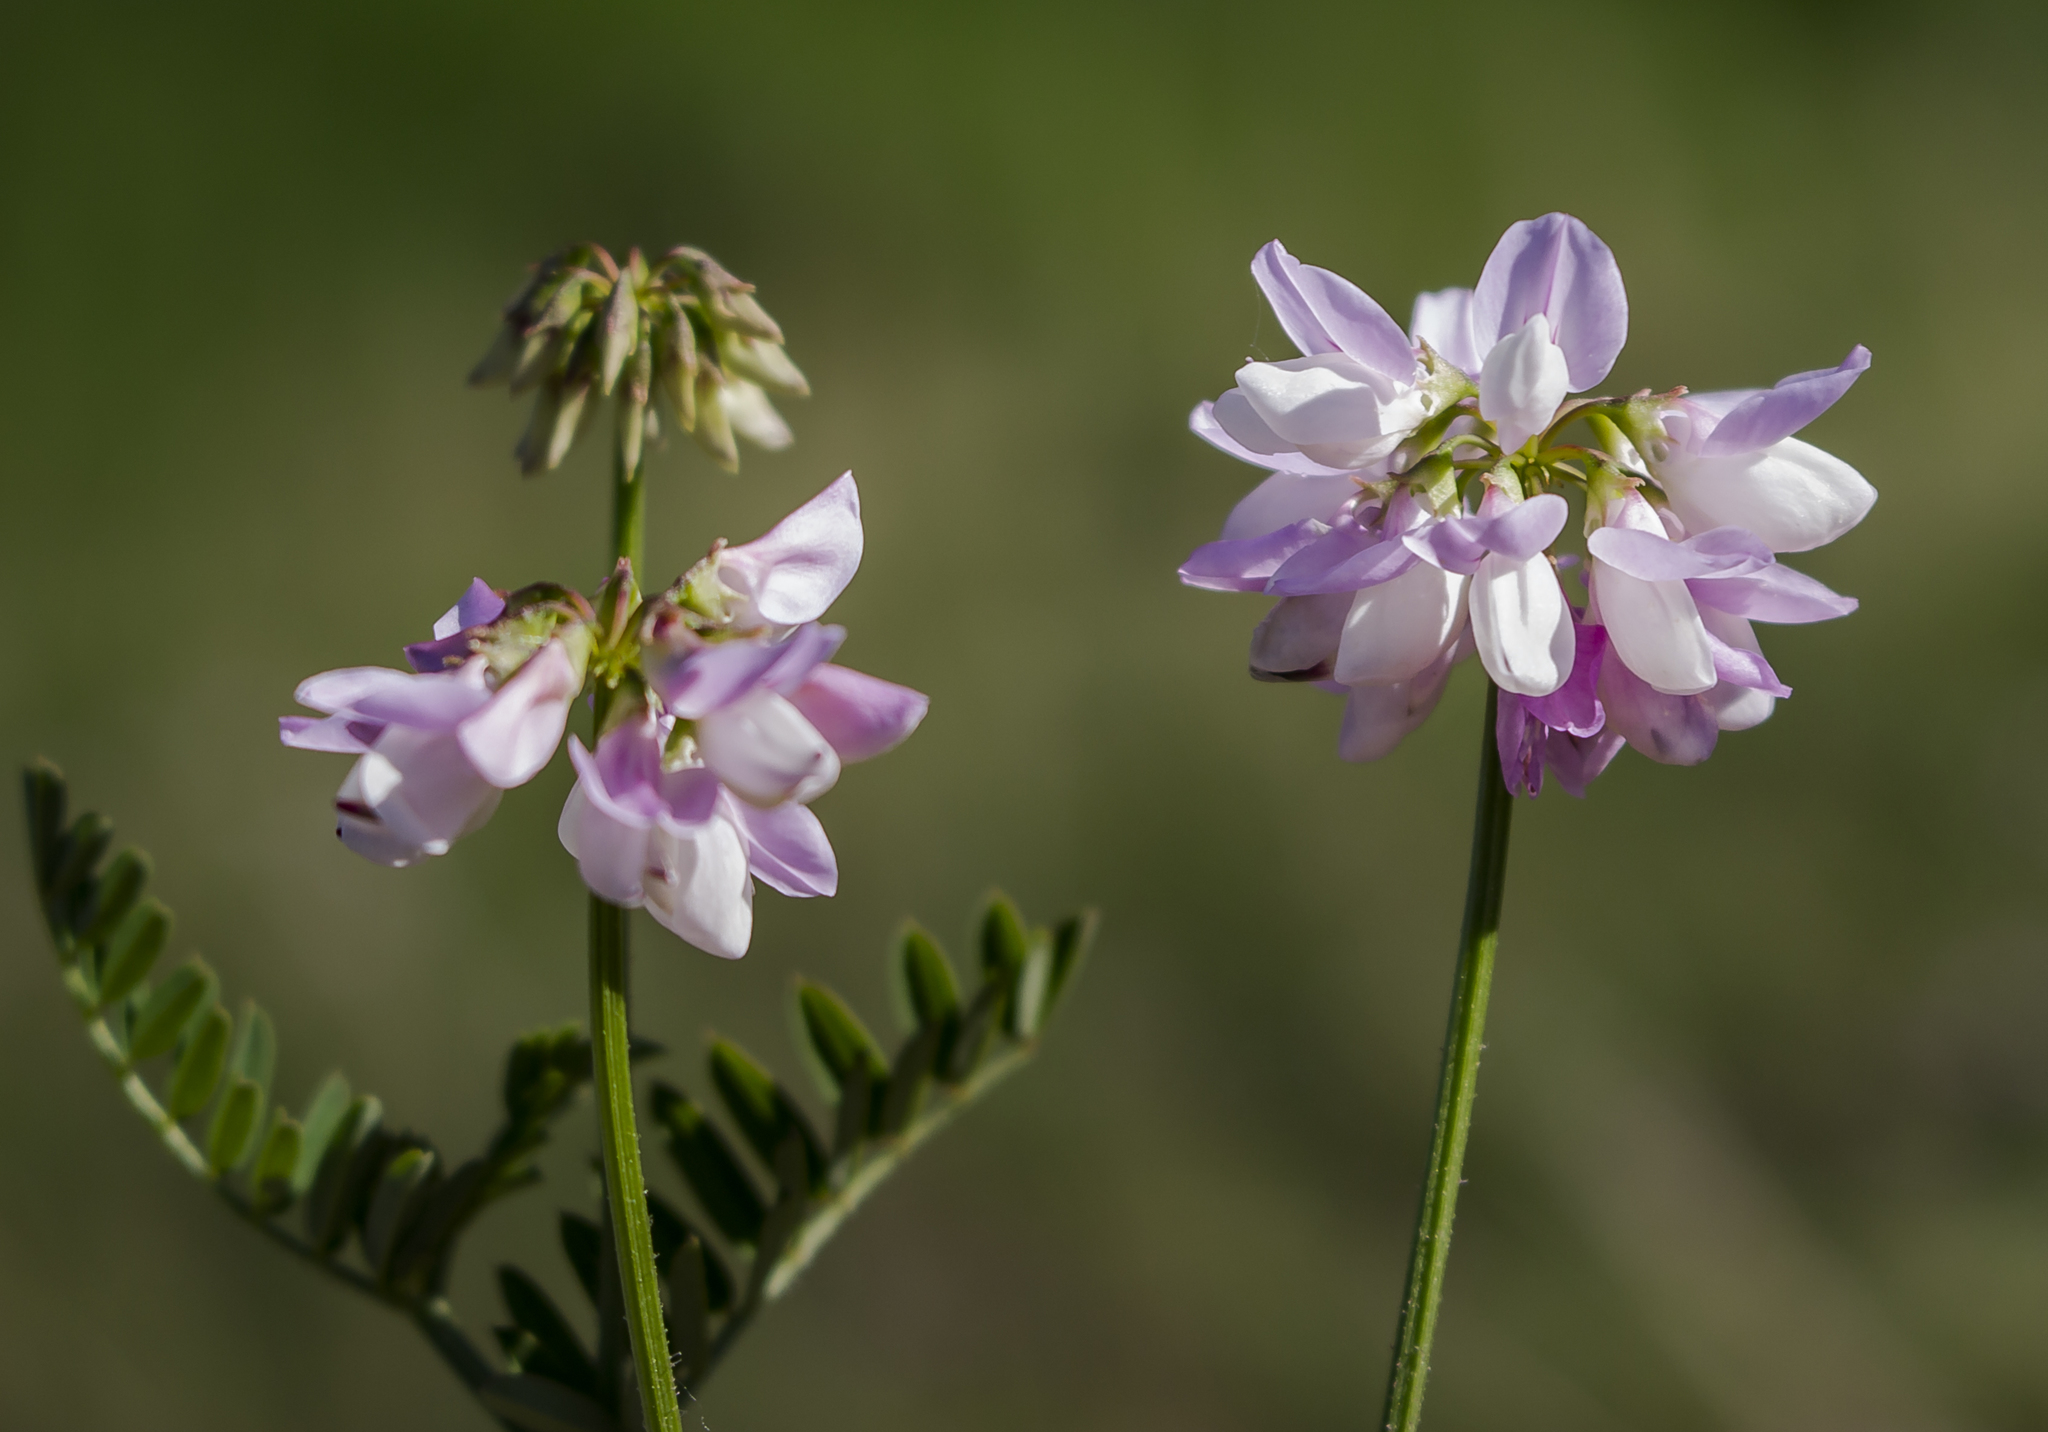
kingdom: Plantae
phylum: Tracheophyta
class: Magnoliopsida
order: Fabales
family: Fabaceae
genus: Coronilla
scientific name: Coronilla varia
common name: Crownvetch
